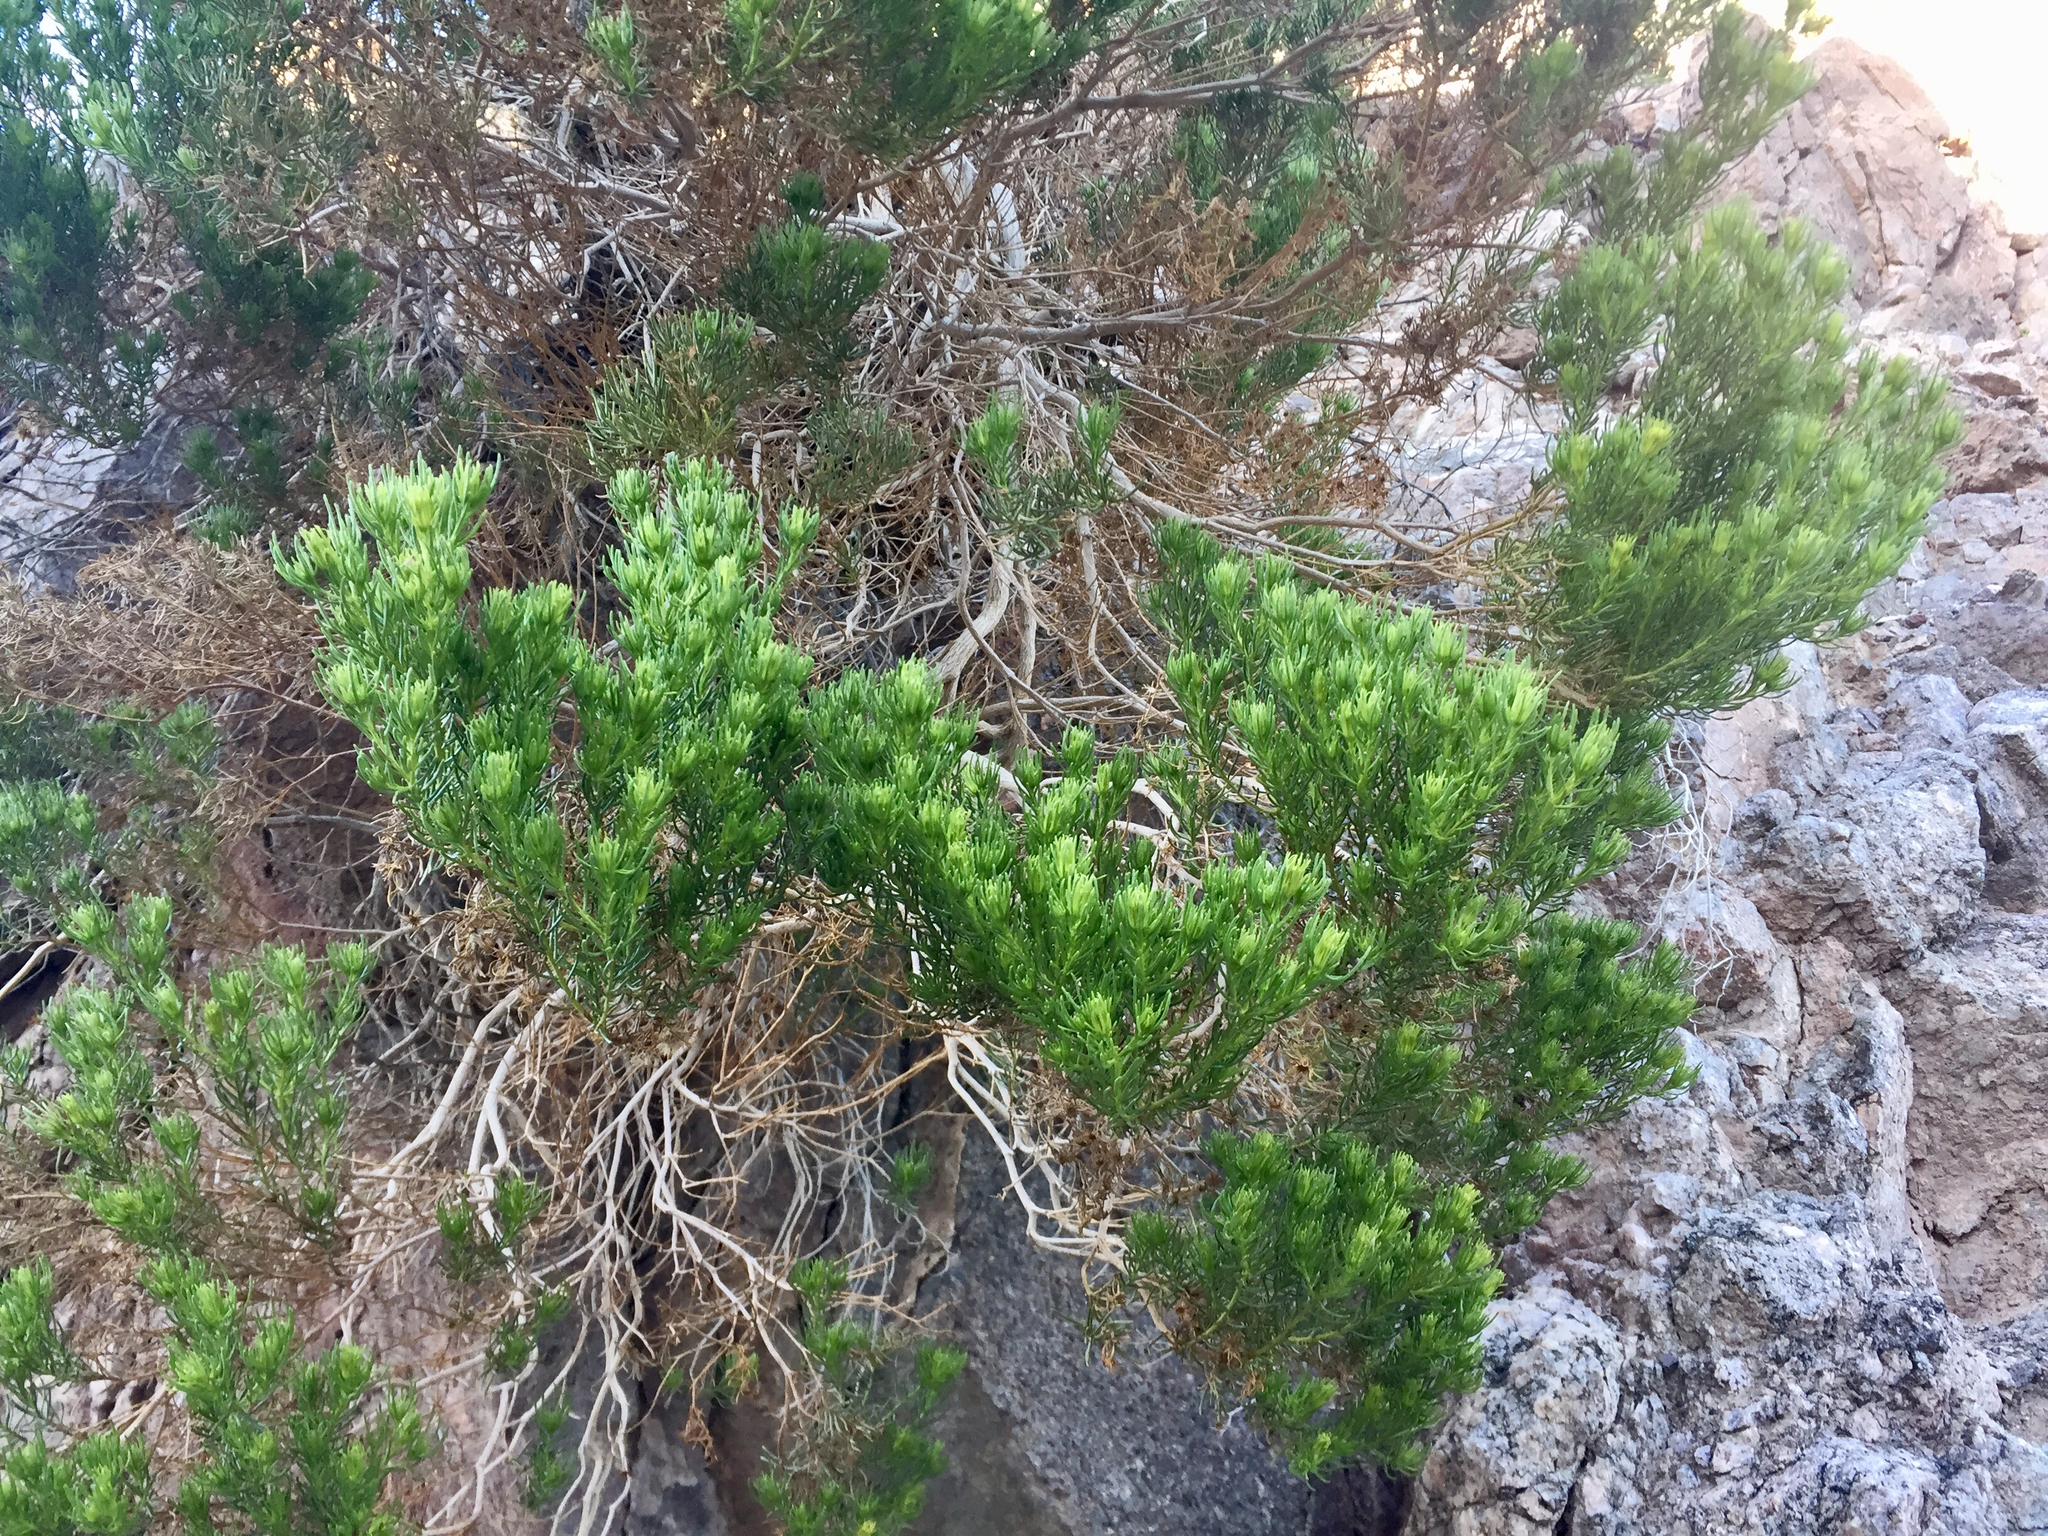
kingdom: Plantae
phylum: Tracheophyta
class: Magnoliopsida
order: Asterales
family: Asteraceae
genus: Peucephyllum
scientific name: Peucephyllum schottii
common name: Pygmy-cedar
